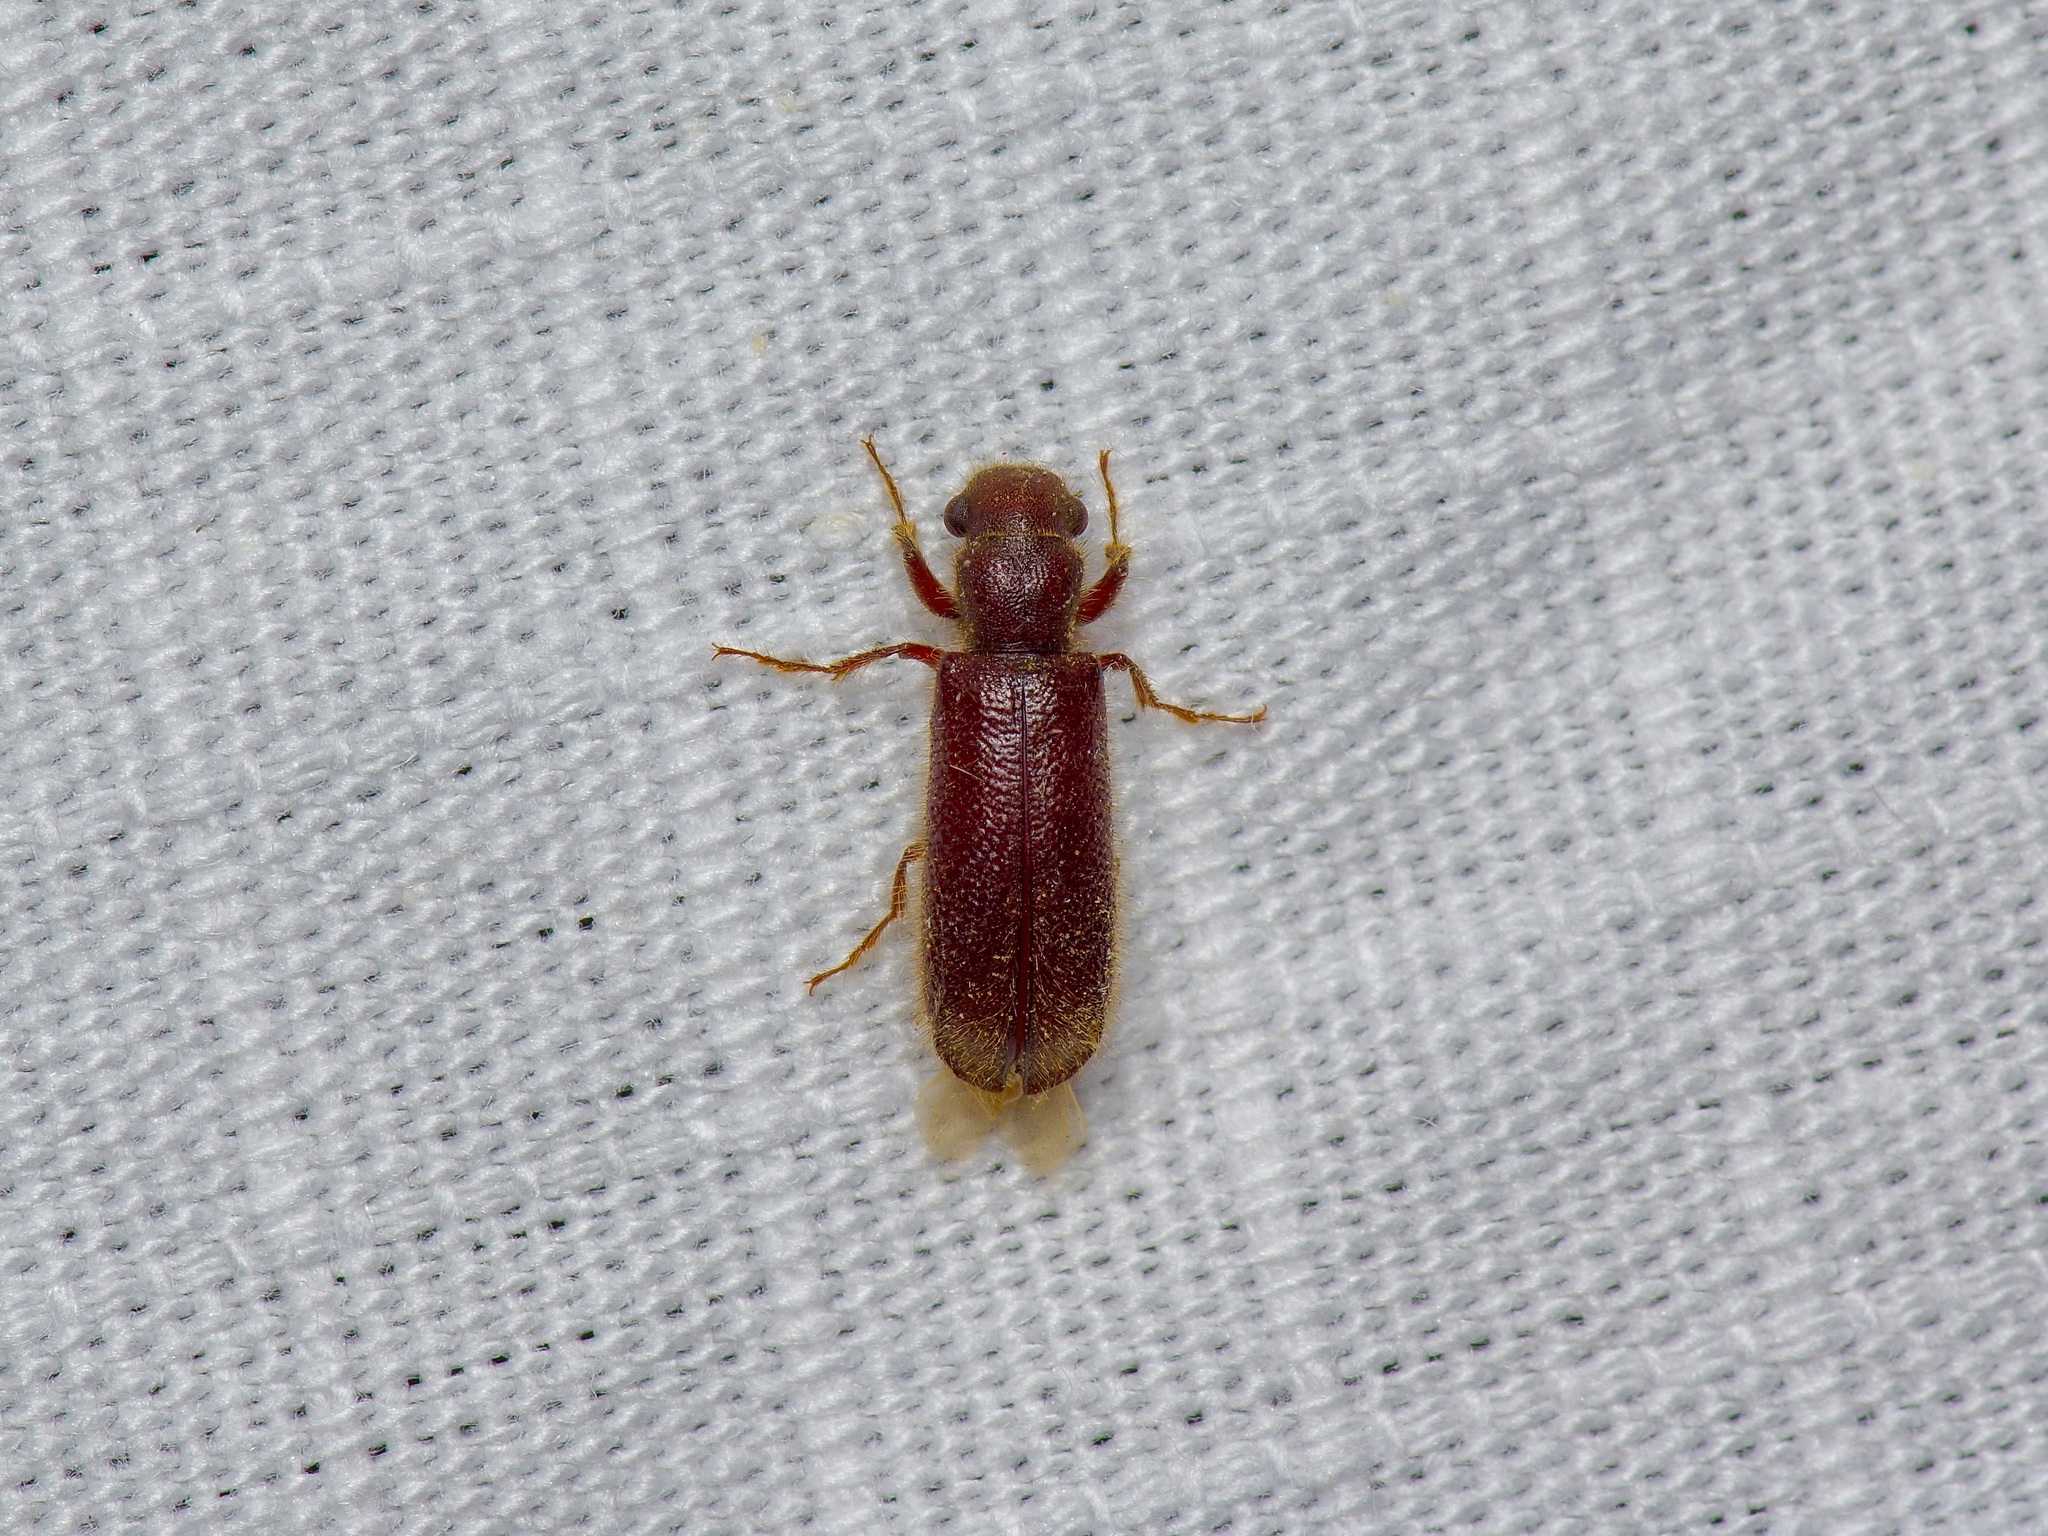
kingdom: Animalia
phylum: Arthropoda
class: Insecta
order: Coleoptera
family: Bostrichidae
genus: Melalgus
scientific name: Melalgus plicatus
